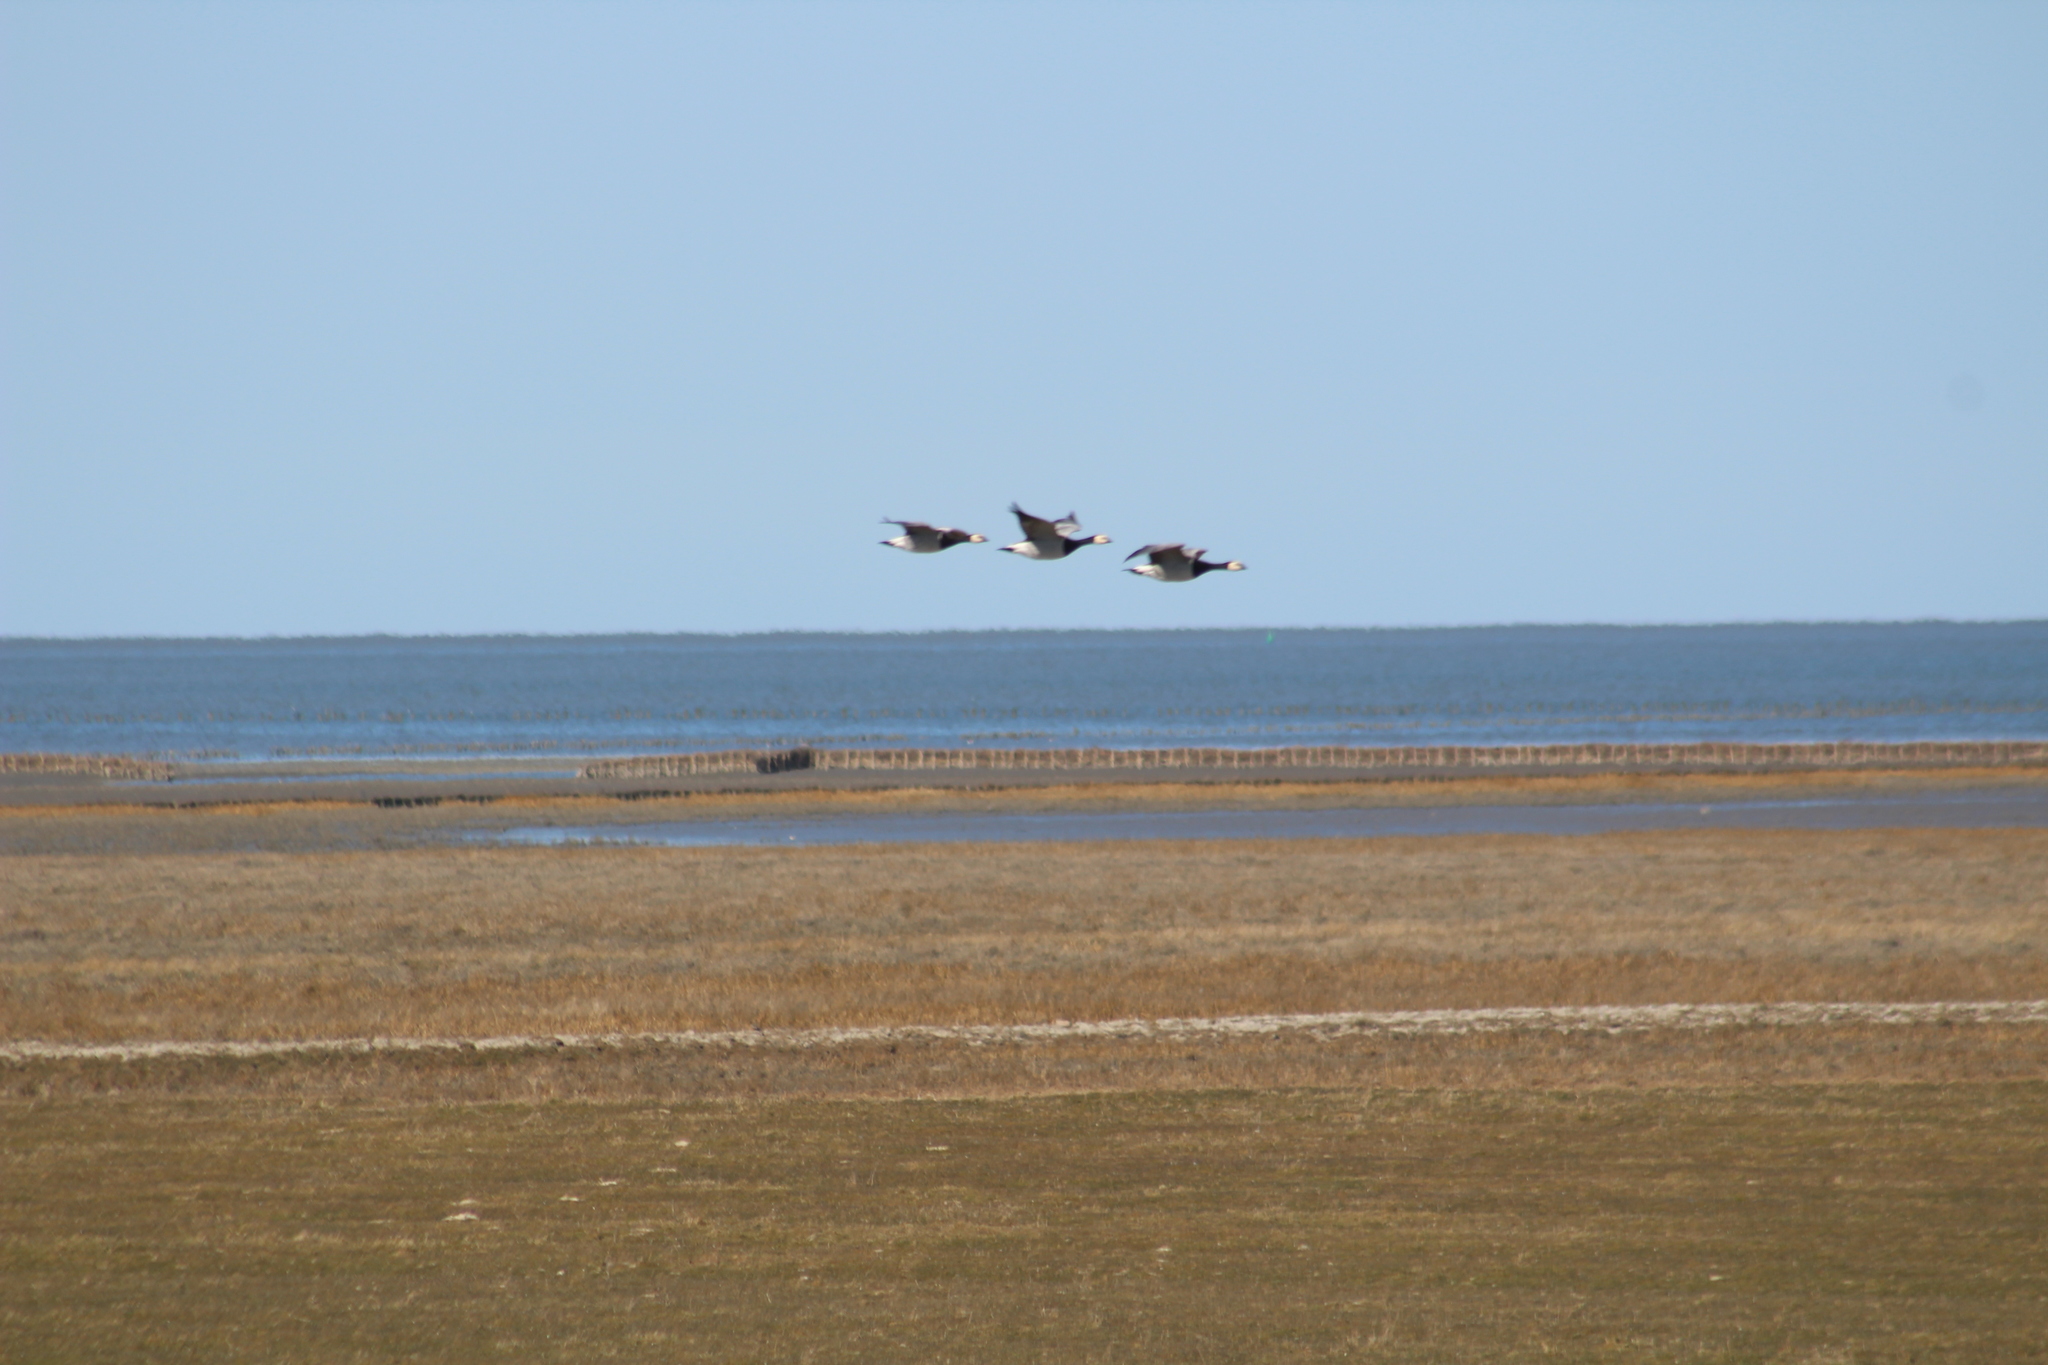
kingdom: Animalia
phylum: Chordata
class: Aves
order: Anseriformes
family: Anatidae
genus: Branta
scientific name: Branta leucopsis
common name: Barnacle goose
